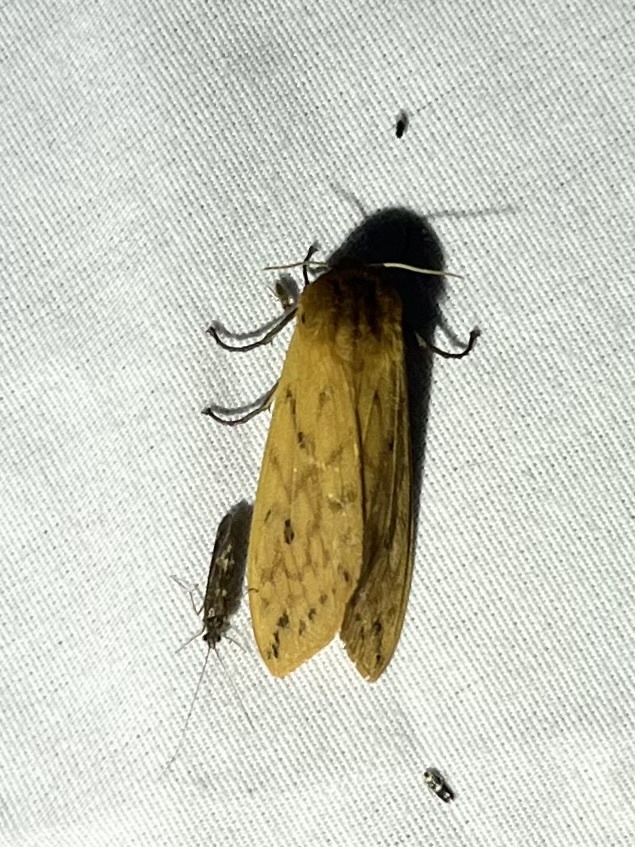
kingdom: Animalia
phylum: Arthropoda
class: Insecta
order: Lepidoptera
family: Erebidae
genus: Pyrrharctia
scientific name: Pyrrharctia isabella
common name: Isabella tiger moth
